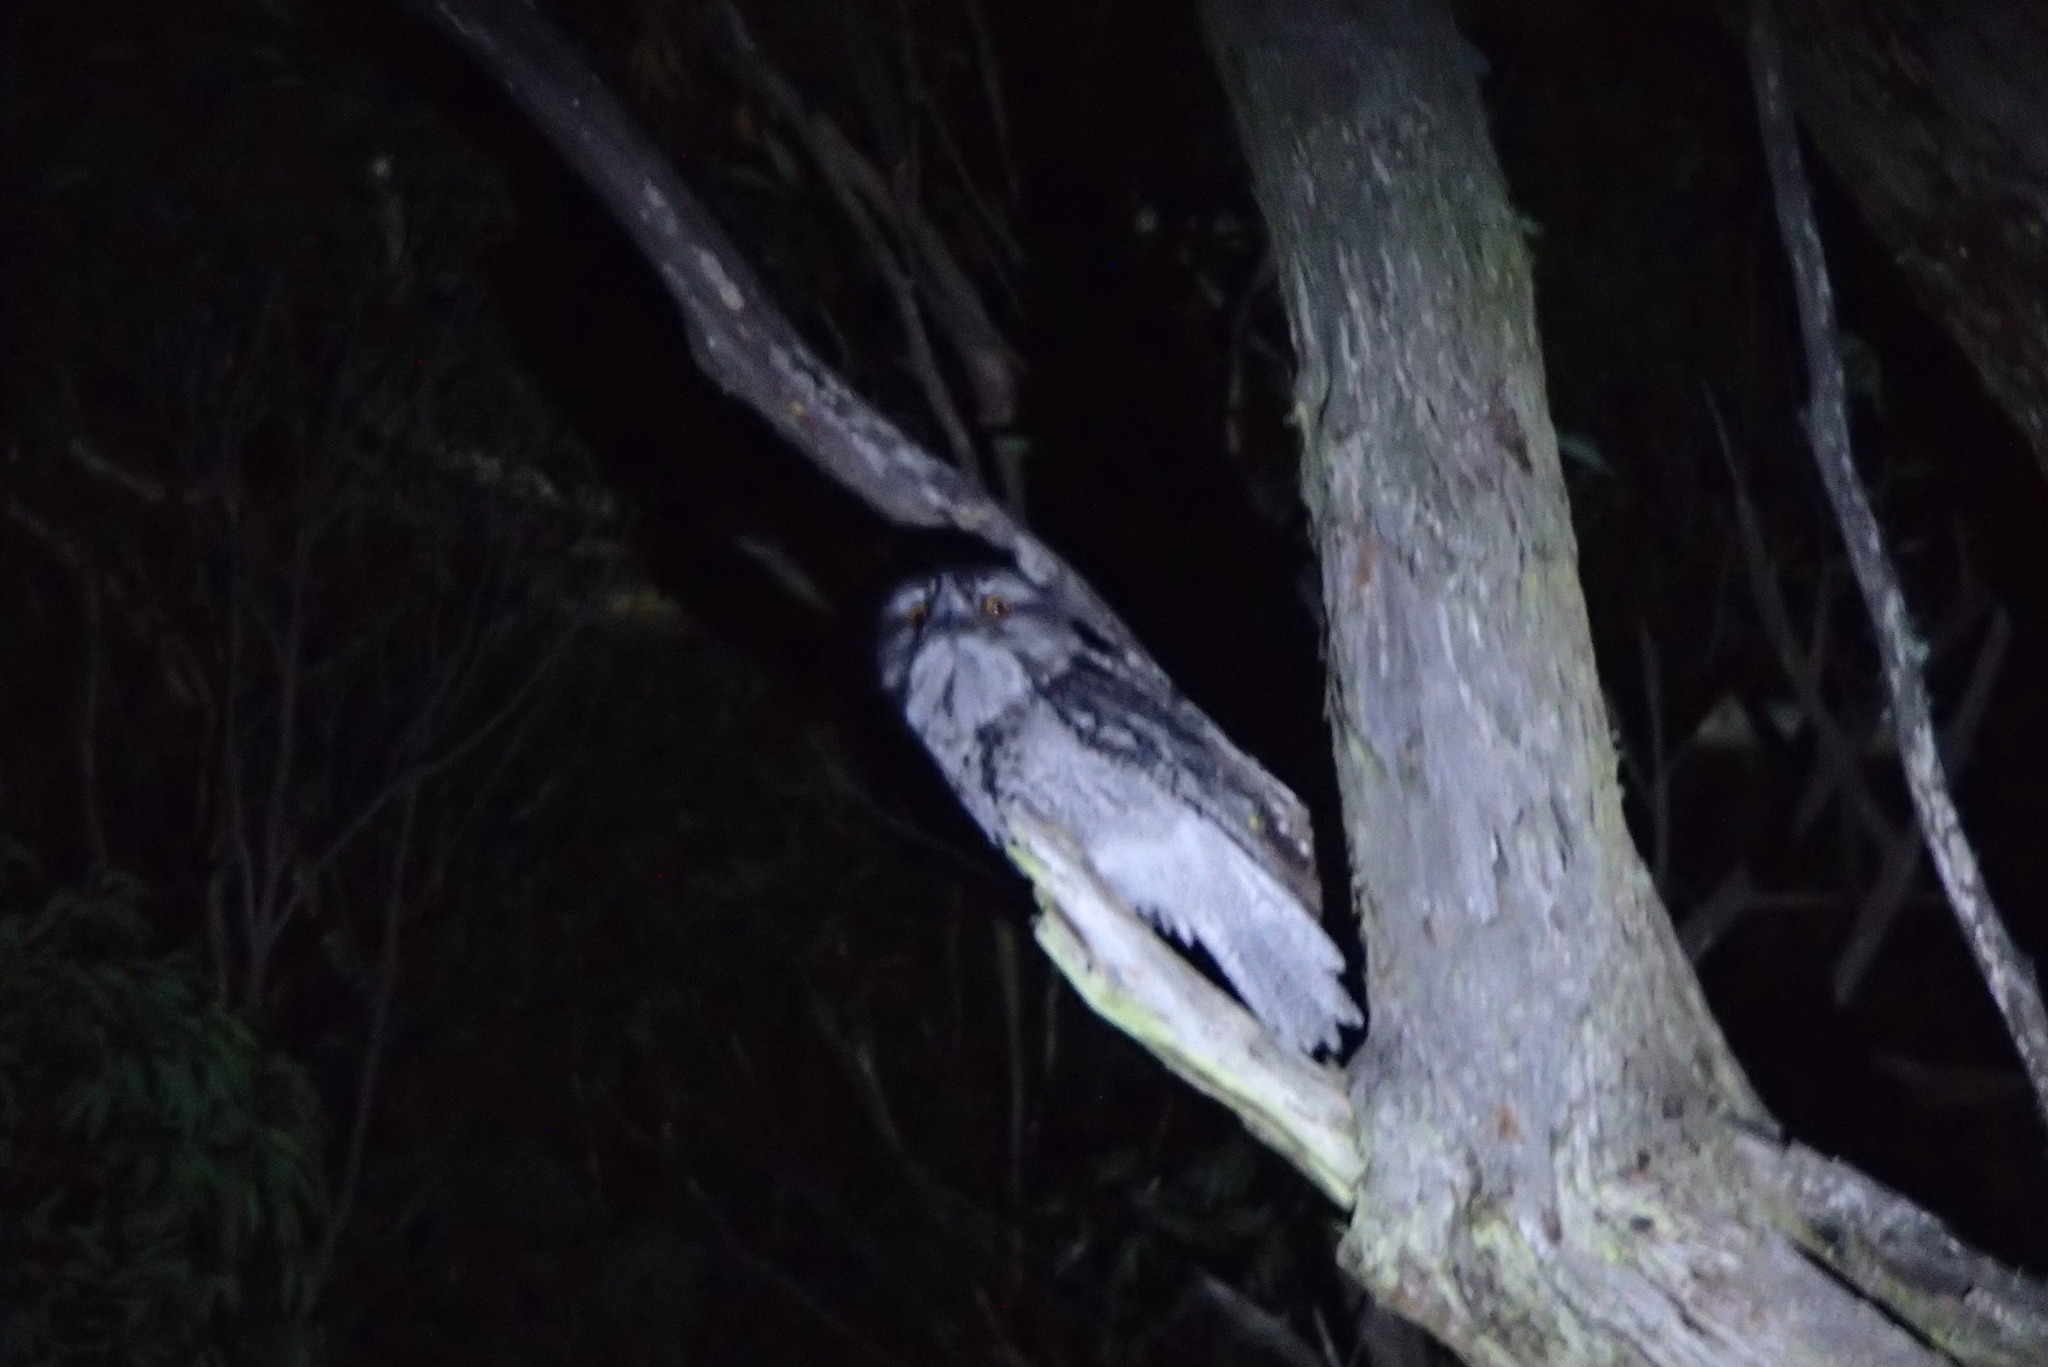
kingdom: Animalia
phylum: Chordata
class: Aves
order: Caprimulgiformes
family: Podargidae
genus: Podargus
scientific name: Podargus strigoides
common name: Tawny frogmouth
